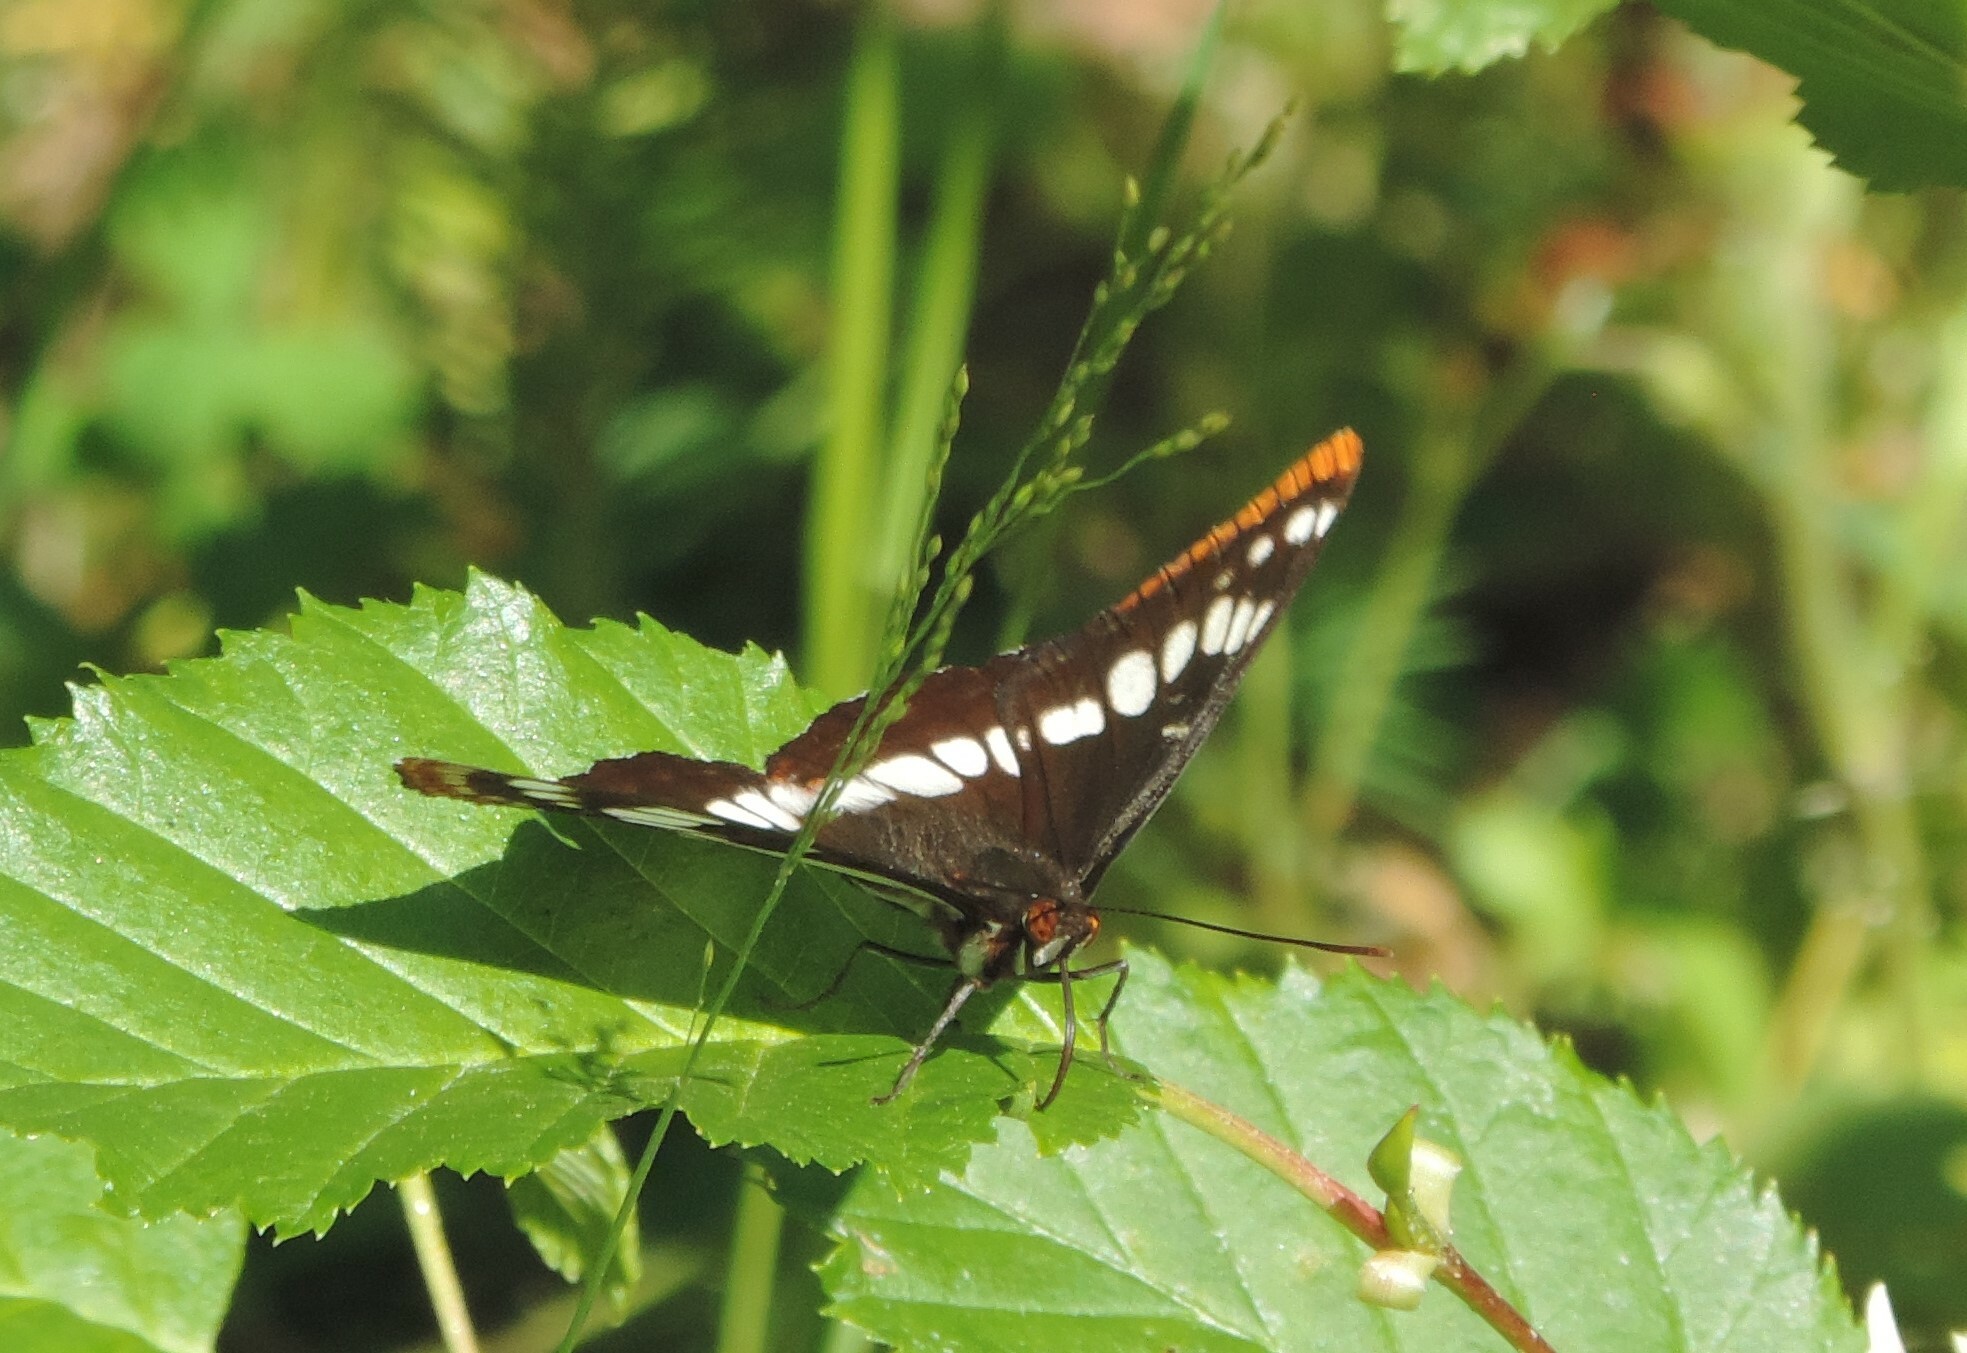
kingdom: Animalia
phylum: Arthropoda
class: Insecta
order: Lepidoptera
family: Nymphalidae
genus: Limenitis
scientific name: Limenitis lorquini
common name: Lorquin's admiral
